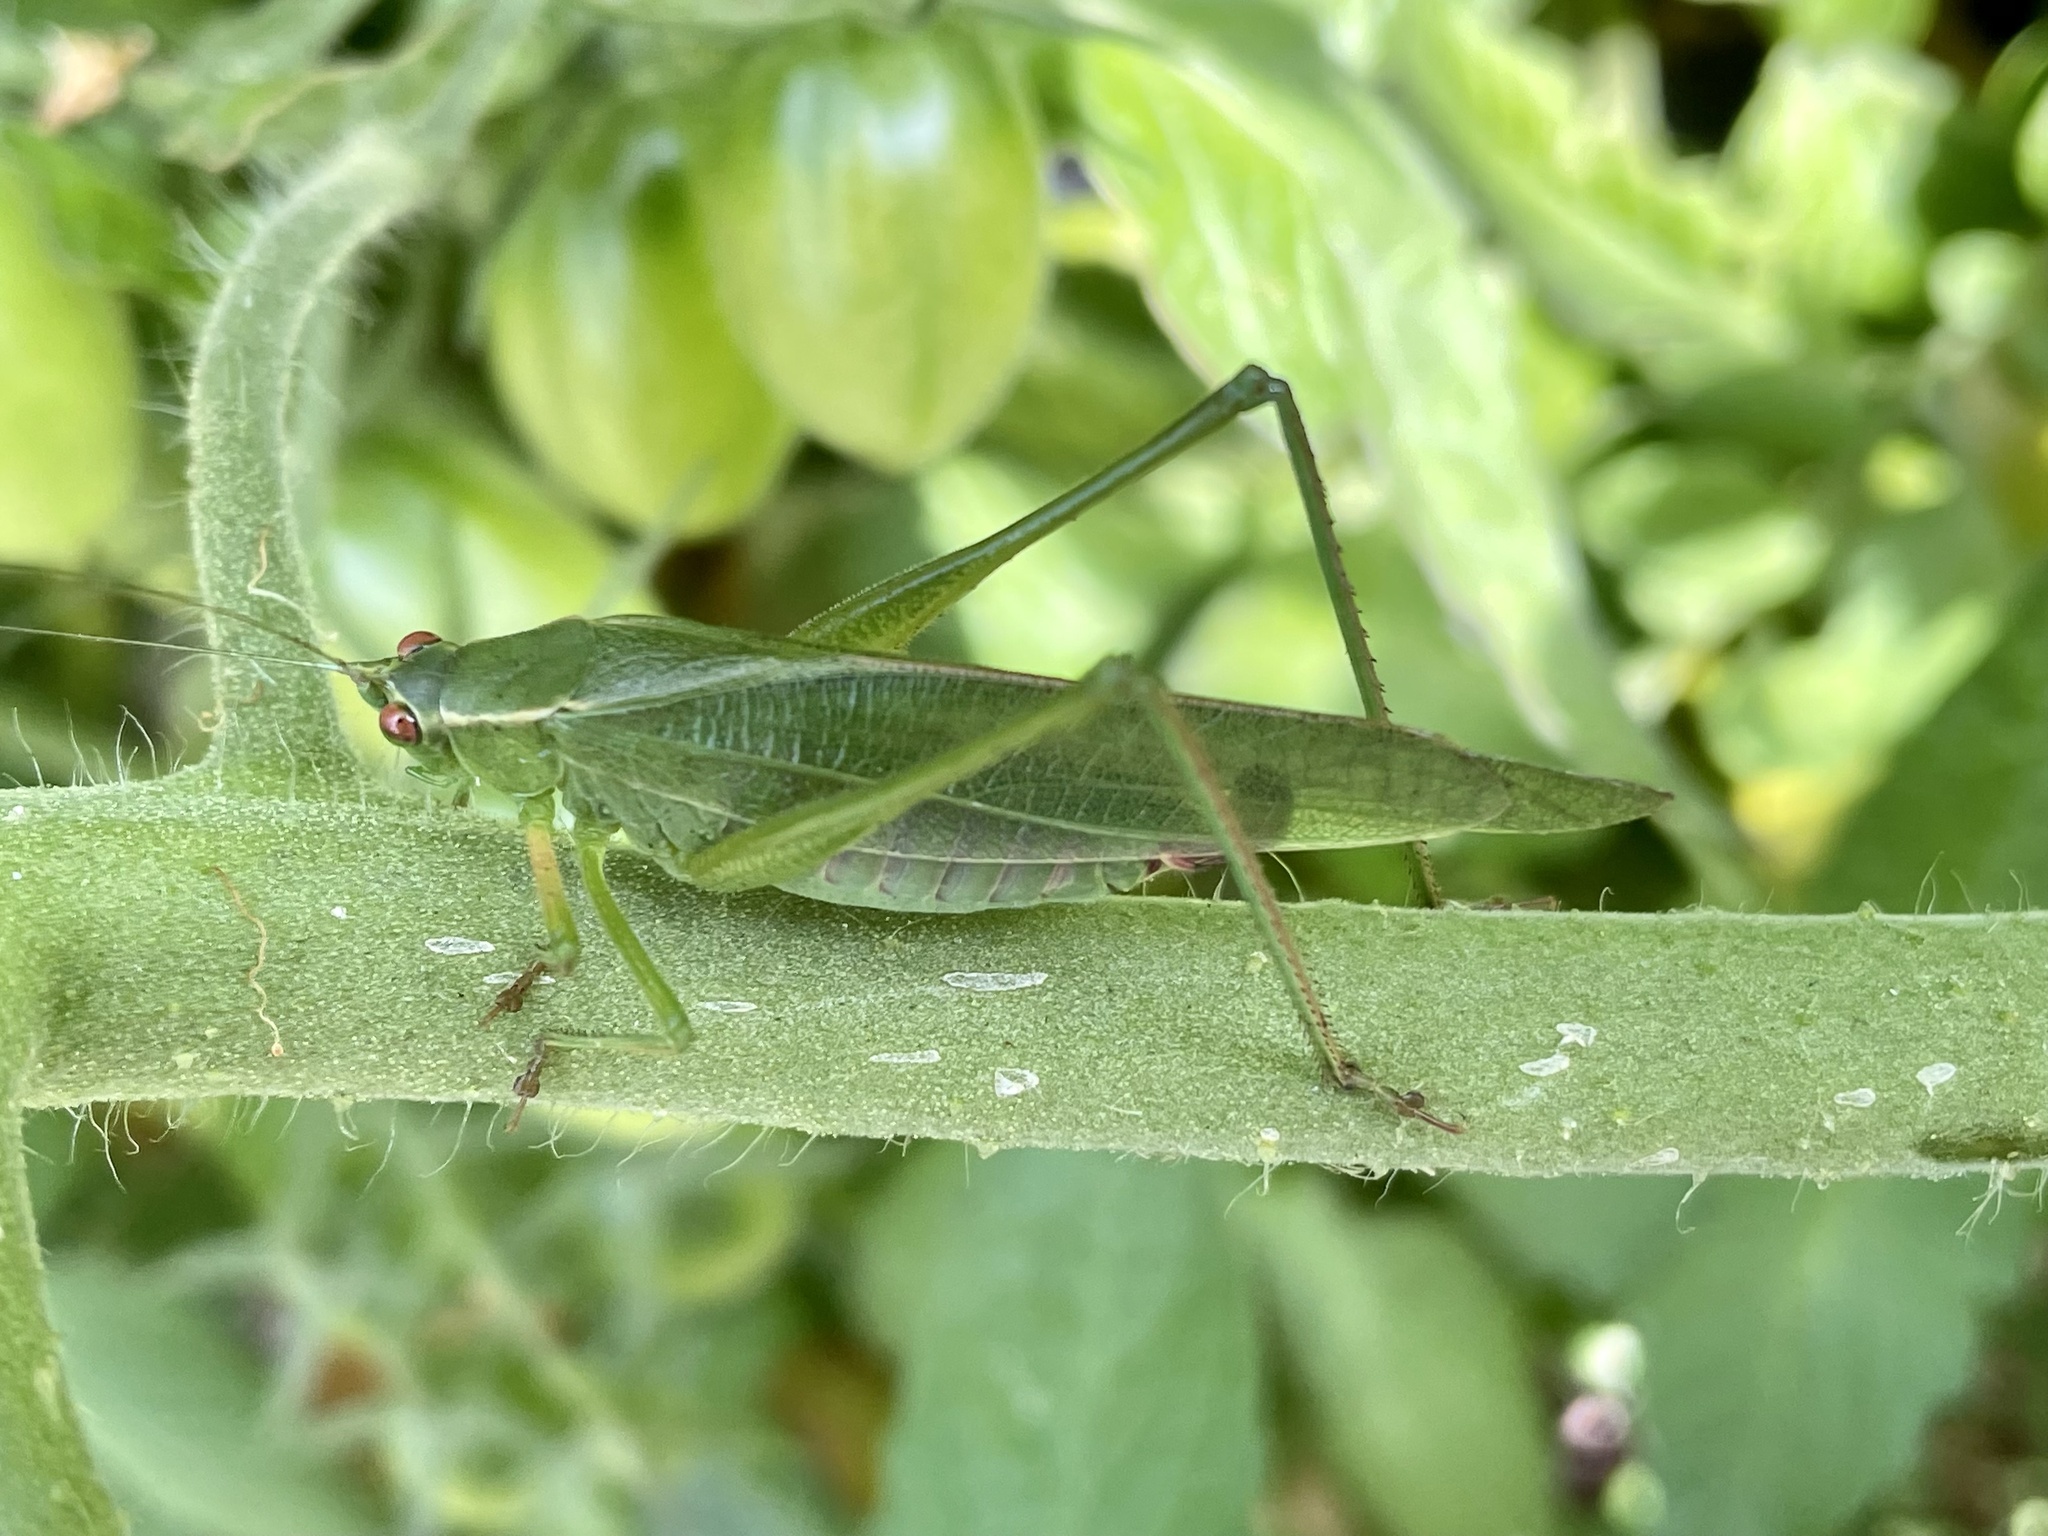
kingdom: Animalia
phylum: Arthropoda
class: Insecta
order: Orthoptera
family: Tettigoniidae
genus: Scudderia
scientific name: Scudderia
